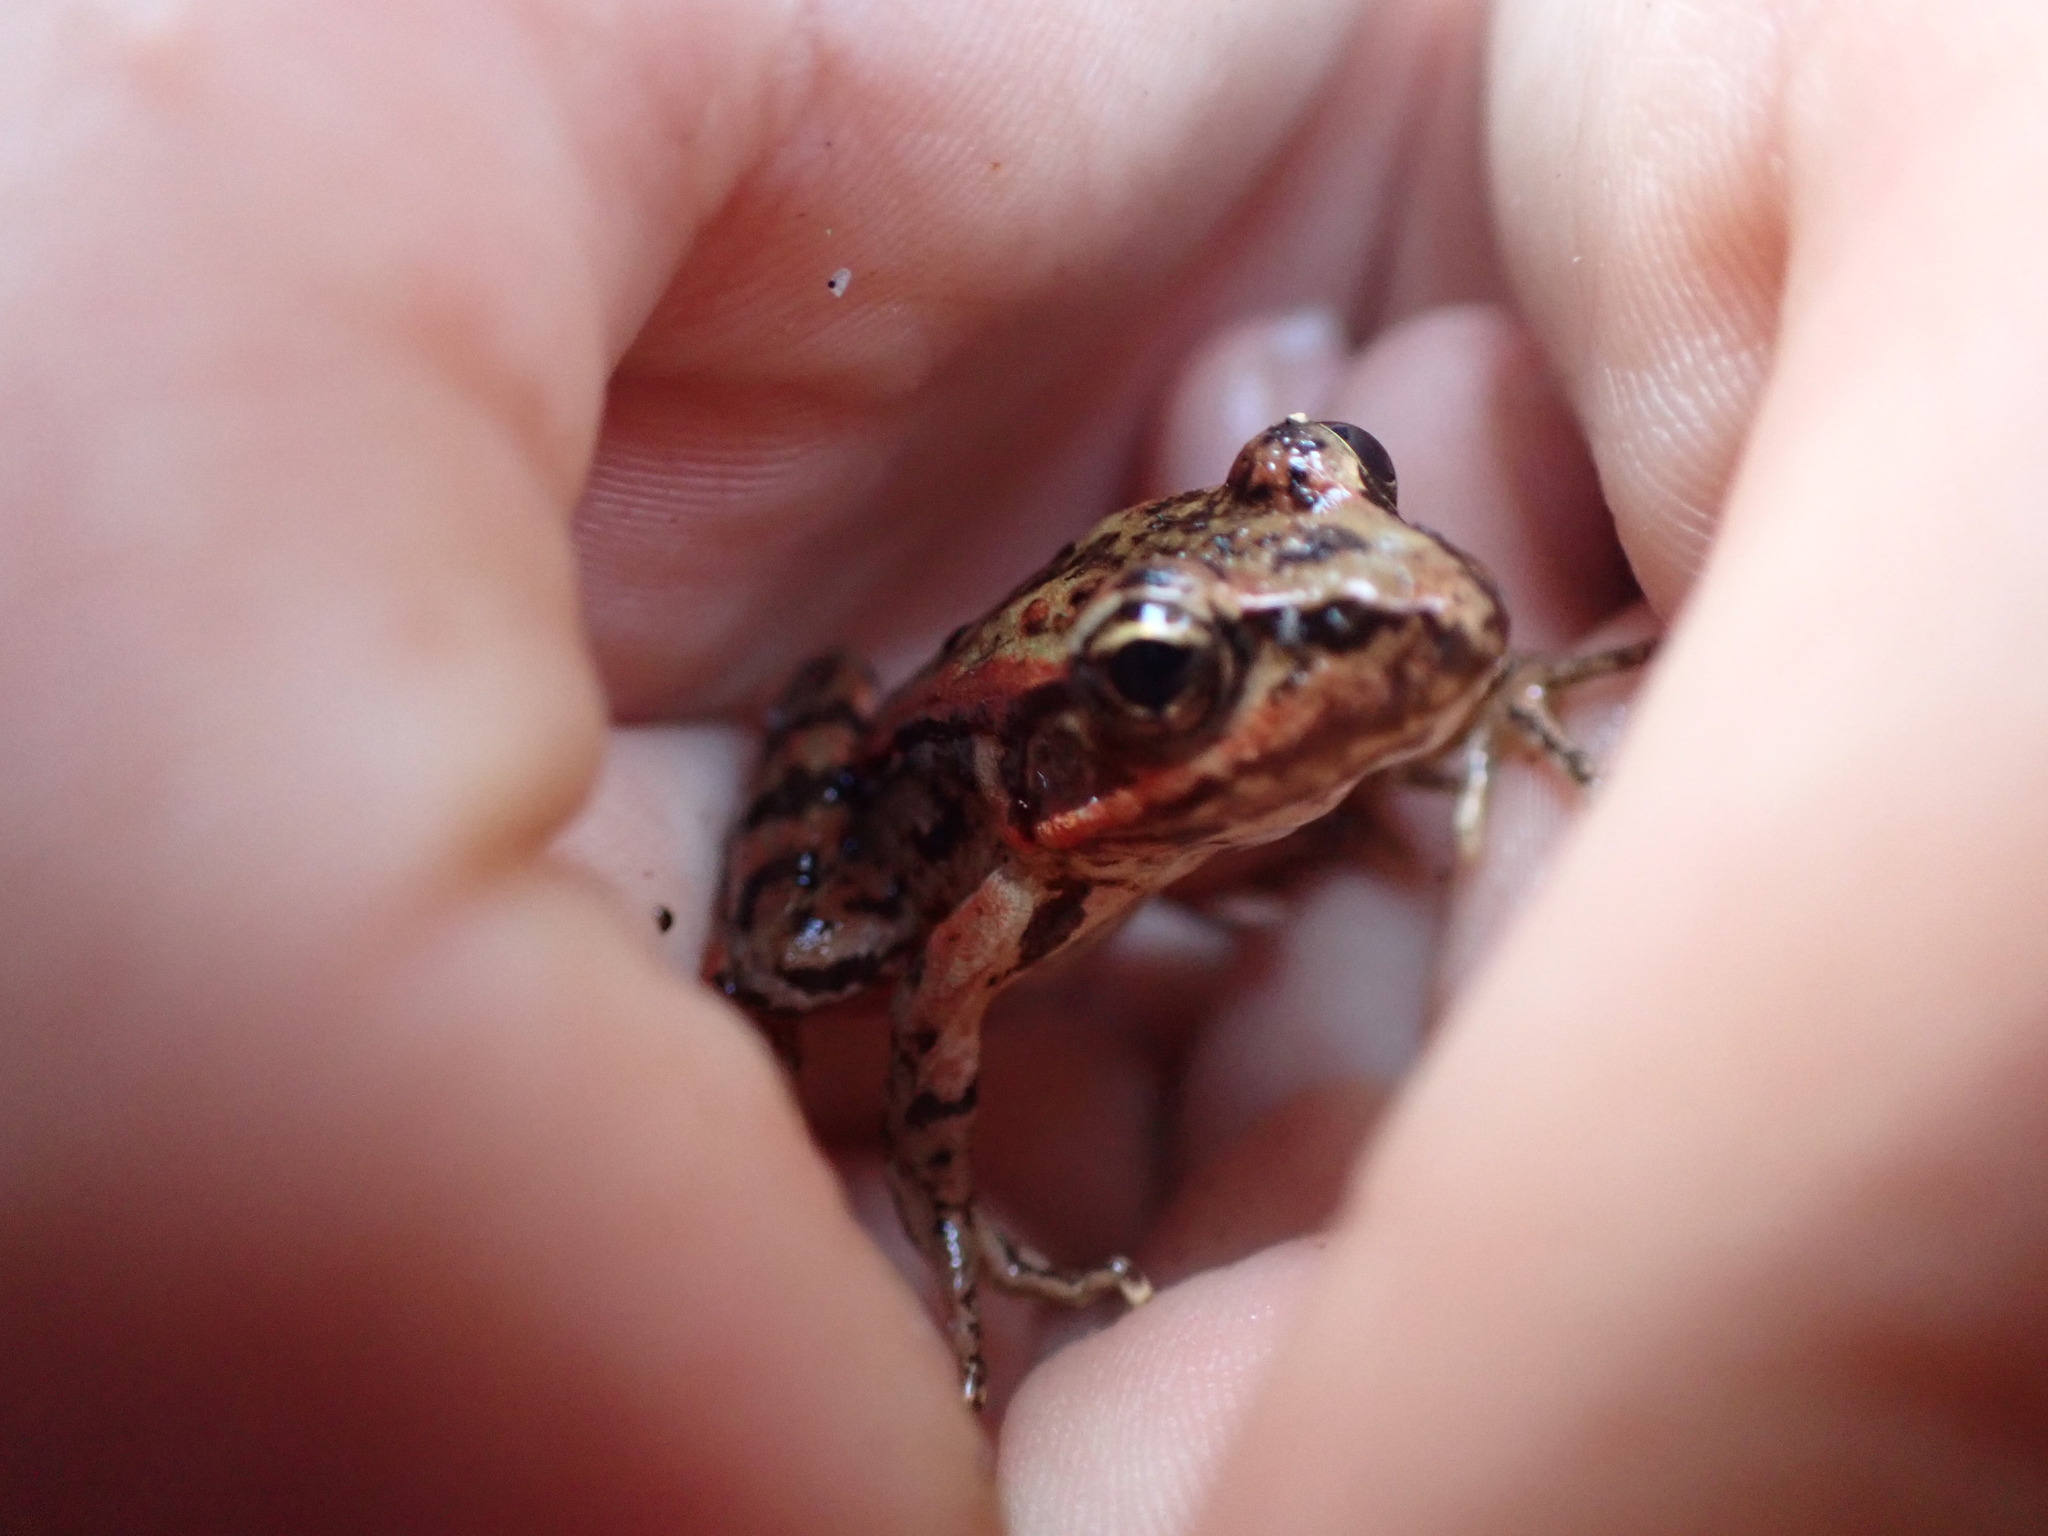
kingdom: Animalia
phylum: Chordata
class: Amphibia
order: Anura
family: Ranidae
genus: Rana
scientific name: Rana aurora
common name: Red-legged frog
